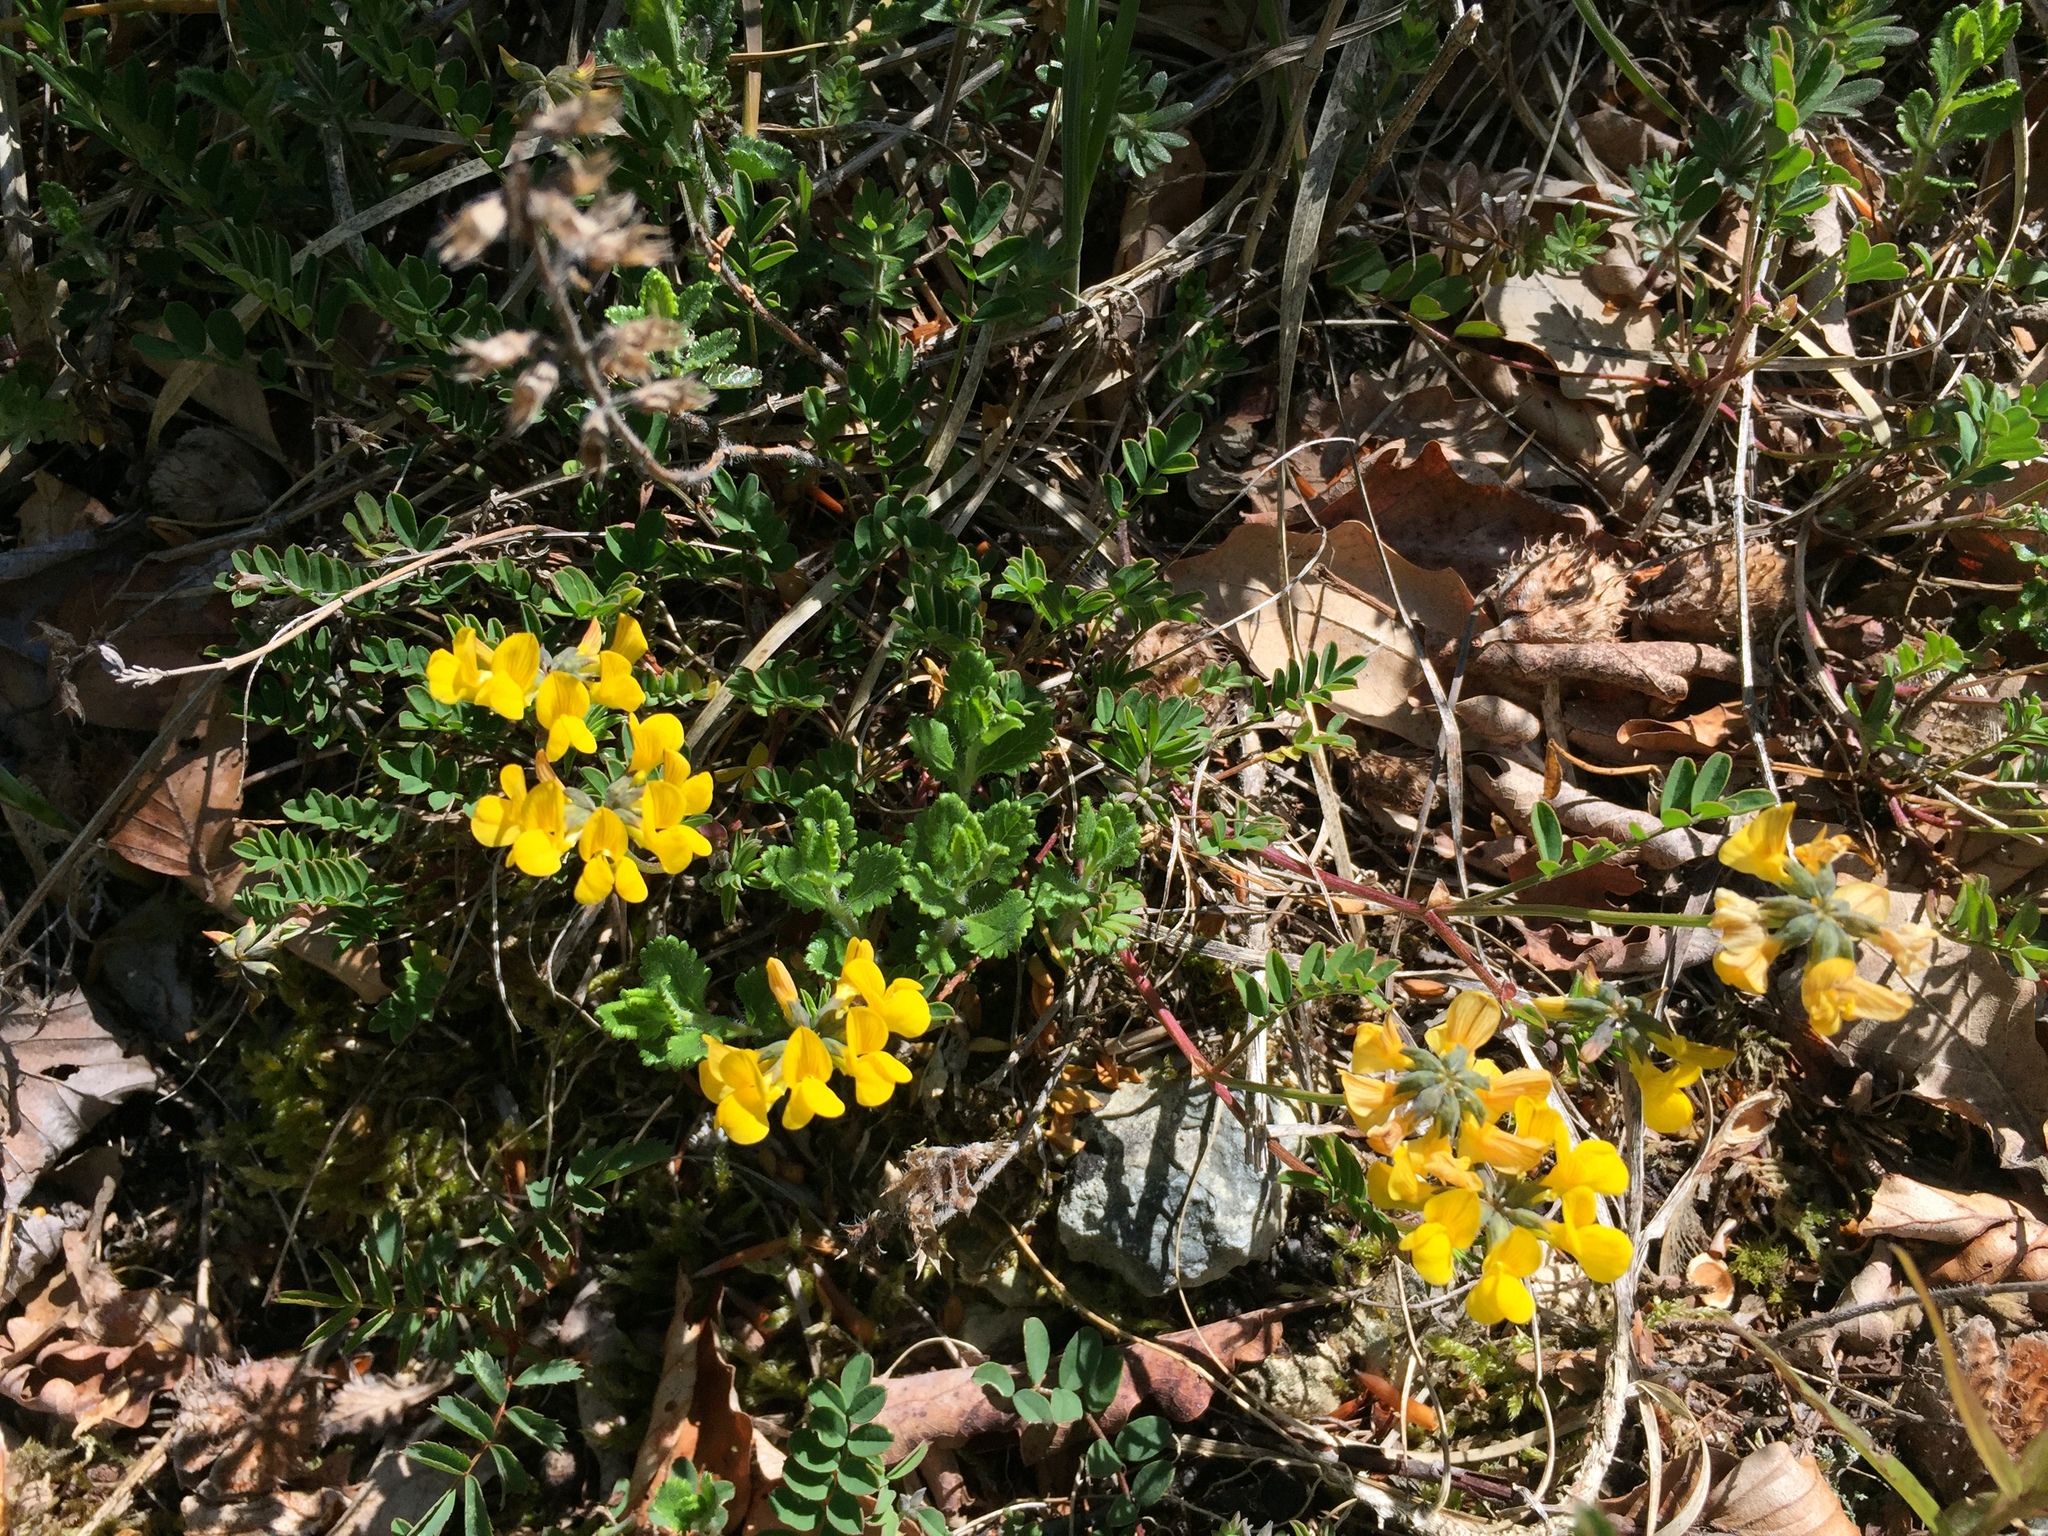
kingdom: Plantae
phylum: Tracheophyta
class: Magnoliopsida
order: Fabales
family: Fabaceae
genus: Hippocrepis
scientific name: Hippocrepis comosa
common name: Horseshoe vetch
